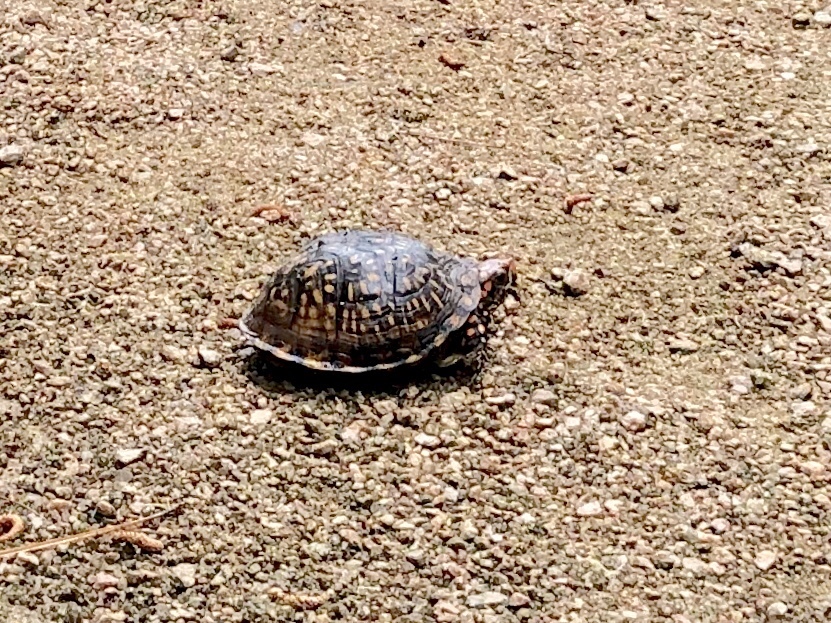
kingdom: Animalia
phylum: Chordata
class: Testudines
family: Emydidae
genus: Terrapene
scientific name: Terrapene carolina
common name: Common box turtle
